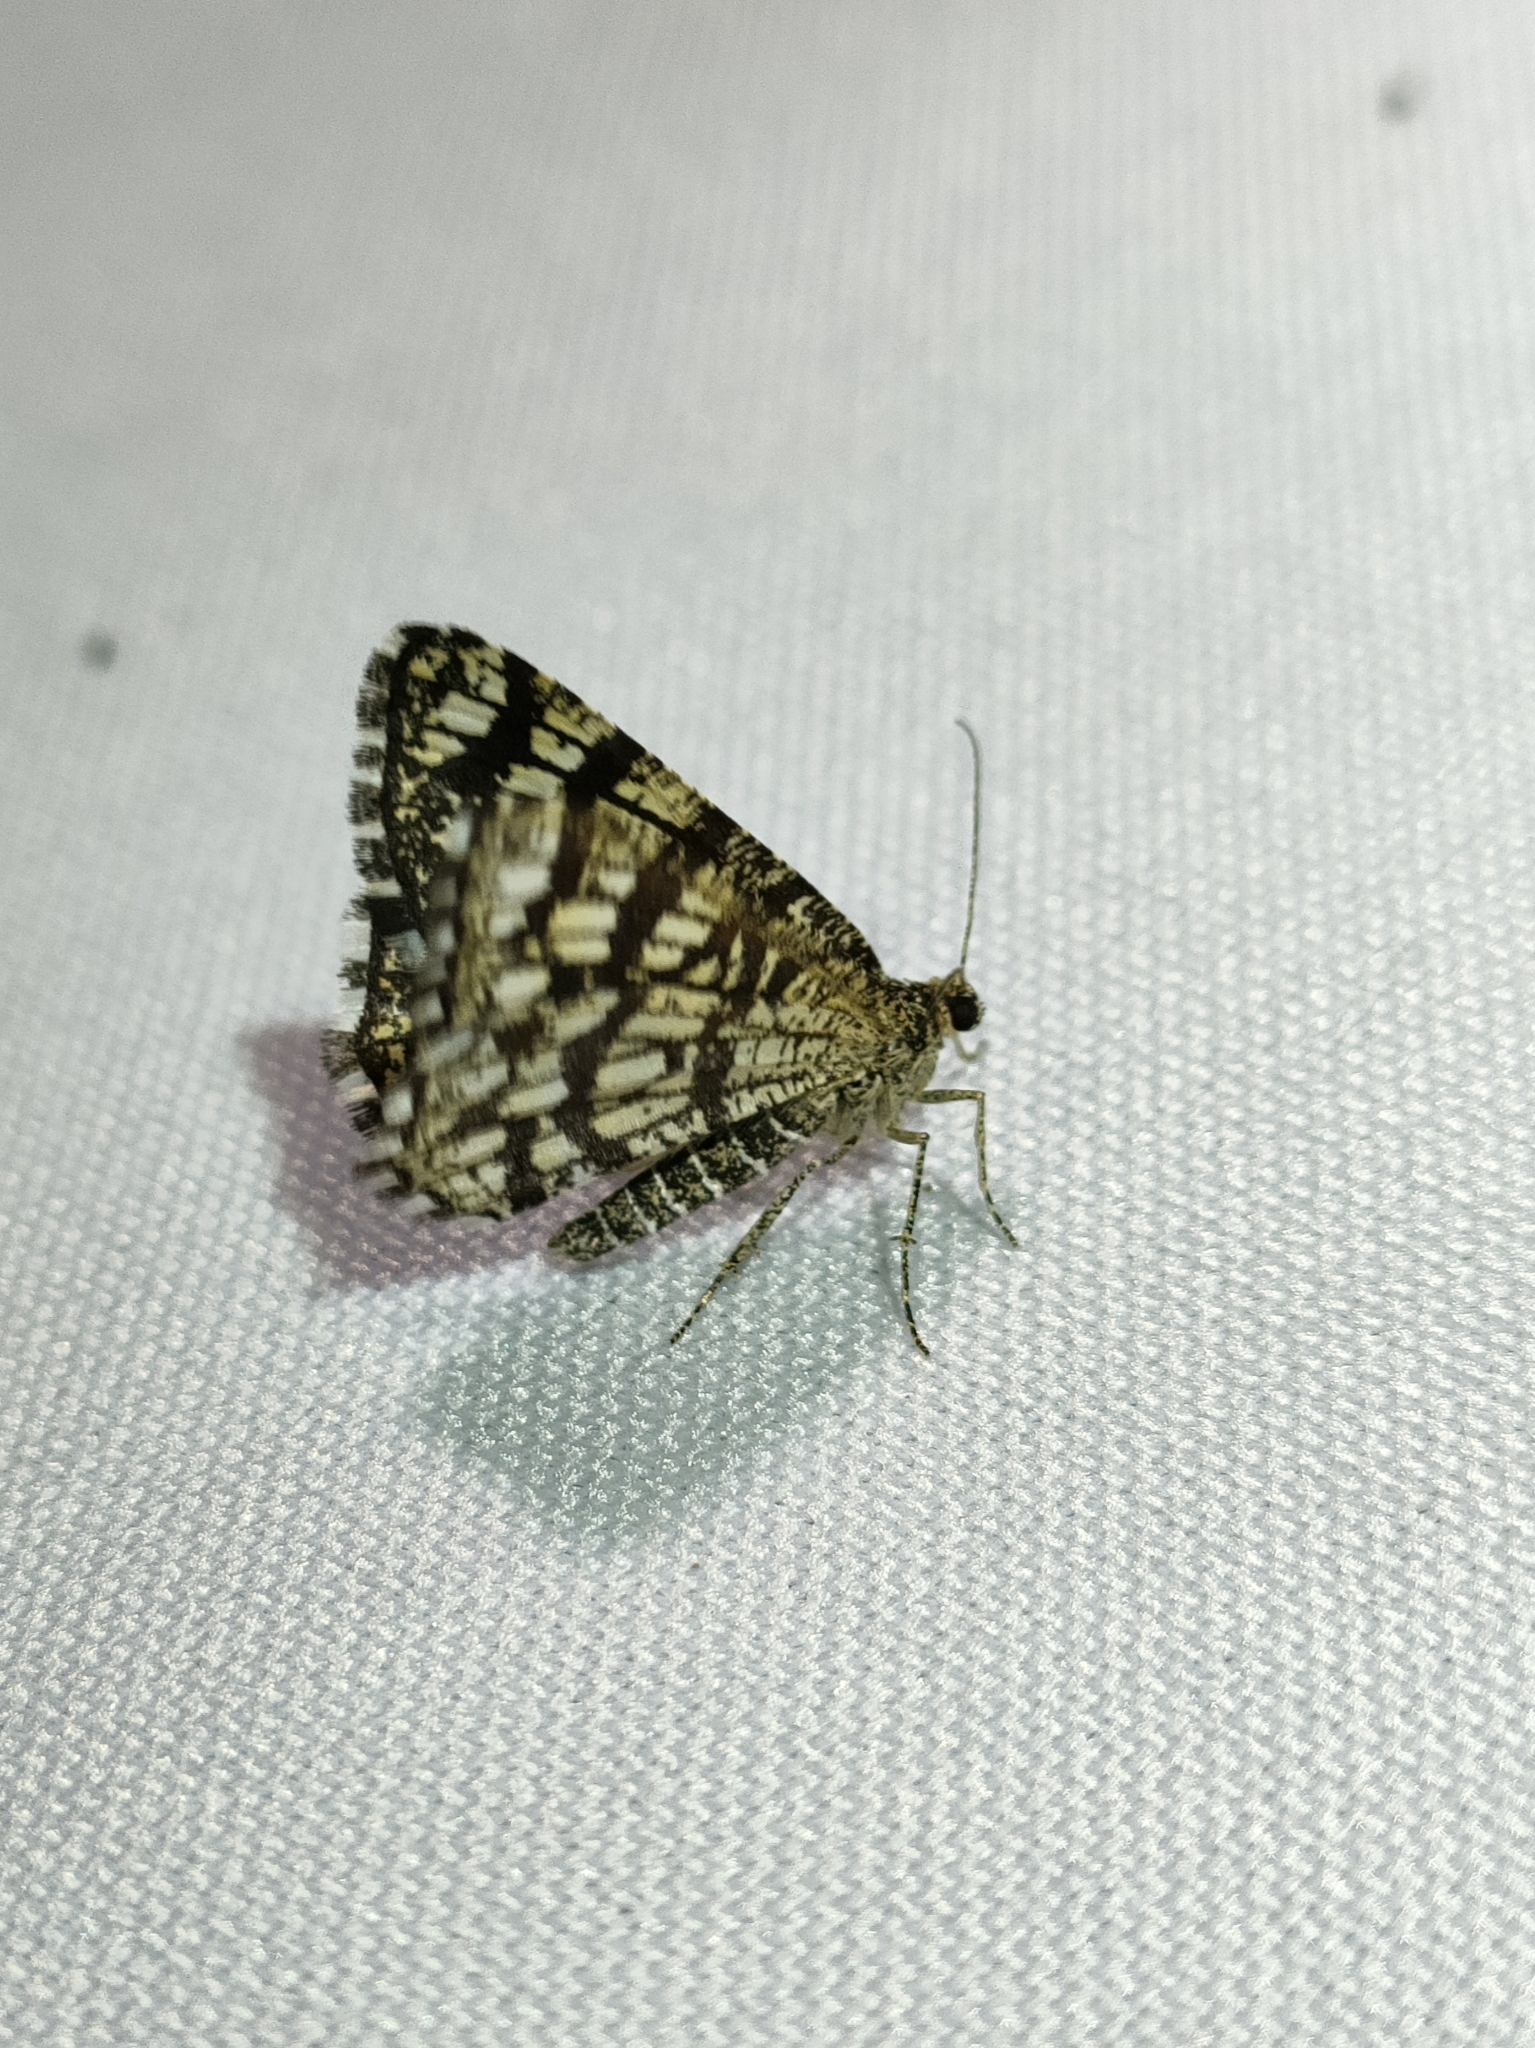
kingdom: Animalia
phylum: Arthropoda
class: Insecta
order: Lepidoptera
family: Geometridae
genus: Chiasmia
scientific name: Chiasmia clathrata
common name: Latticed heath
